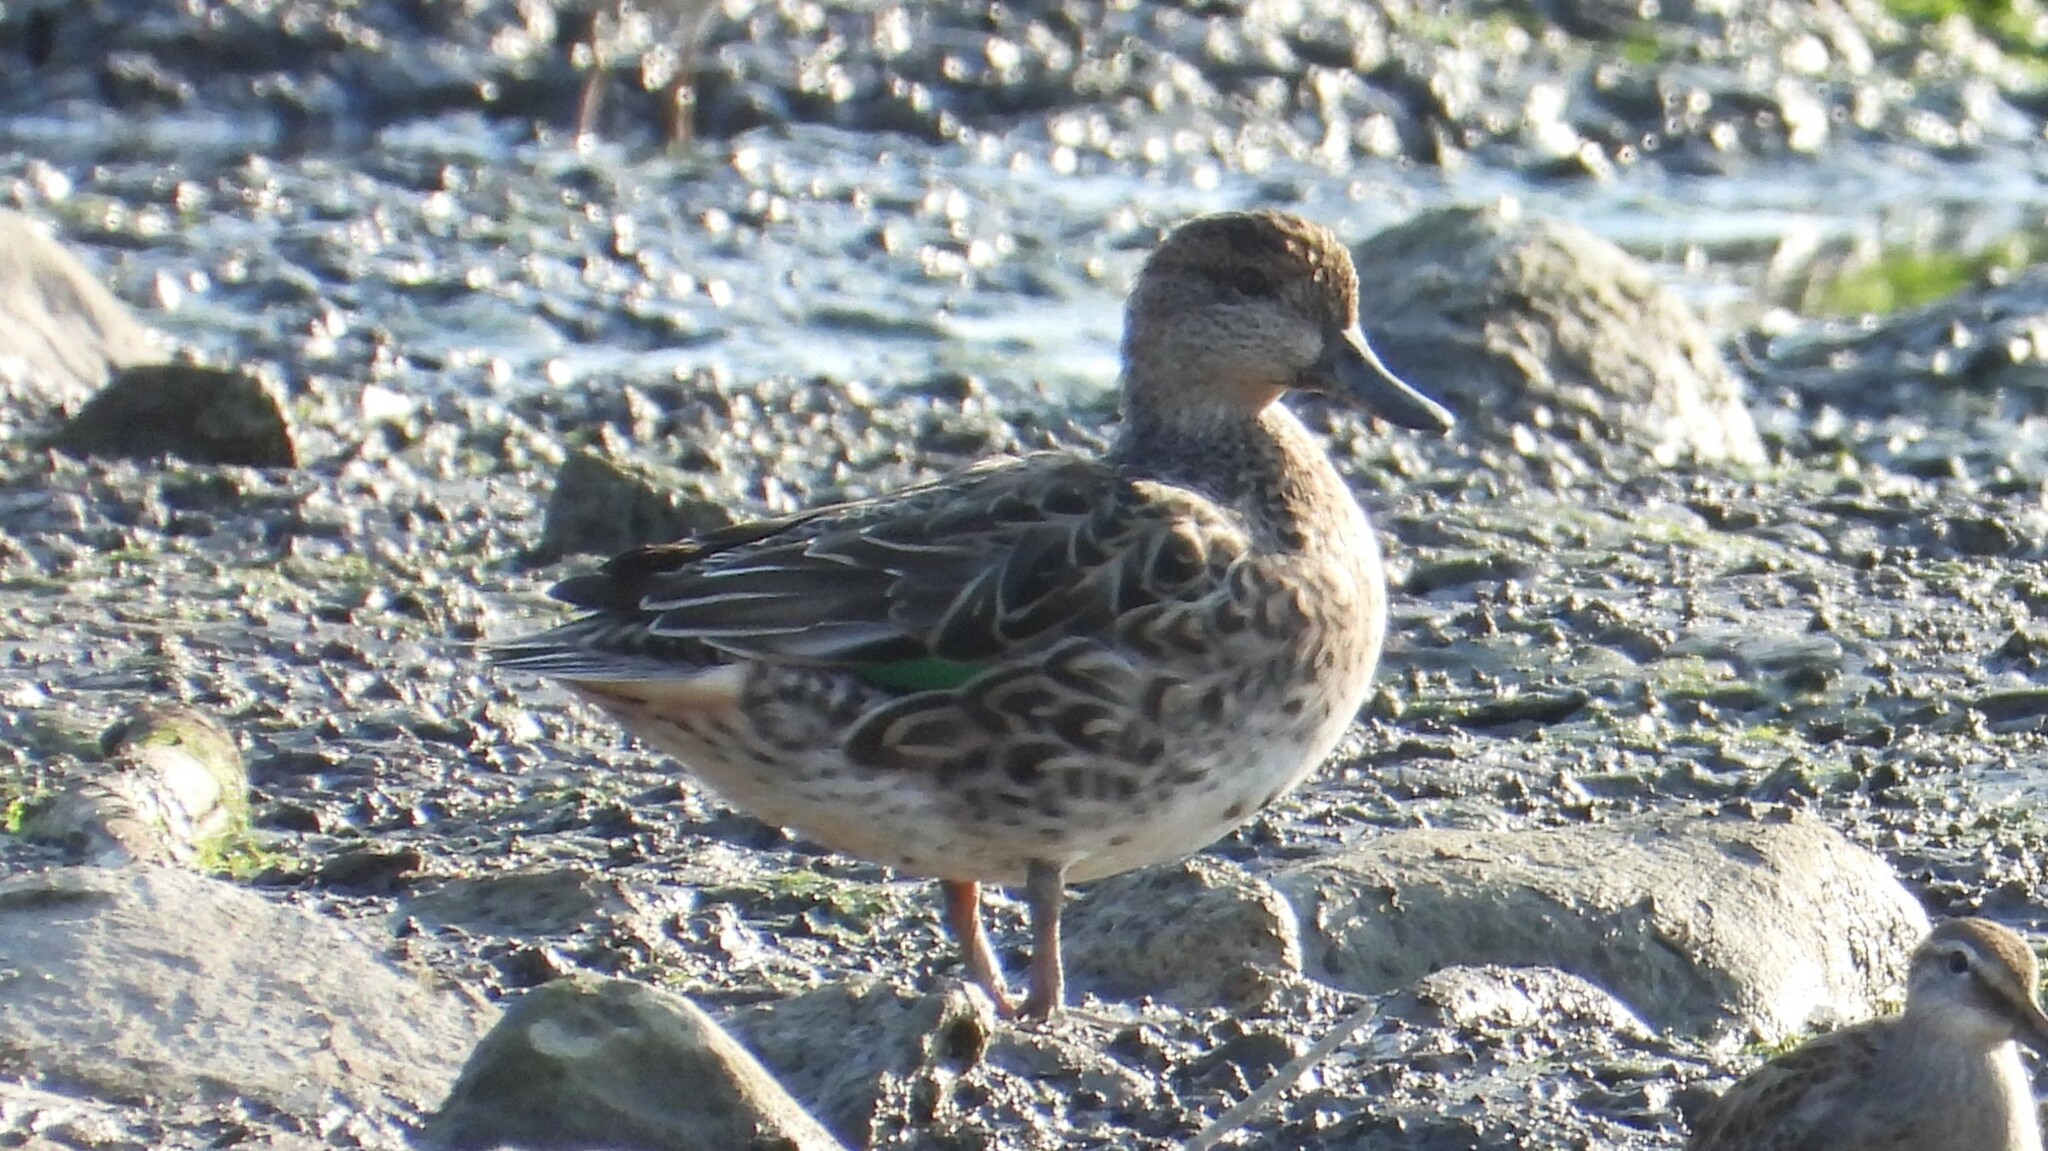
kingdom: Animalia
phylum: Chordata
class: Aves
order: Anseriformes
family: Anatidae
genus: Anas
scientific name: Anas crecca
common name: Eurasian teal
